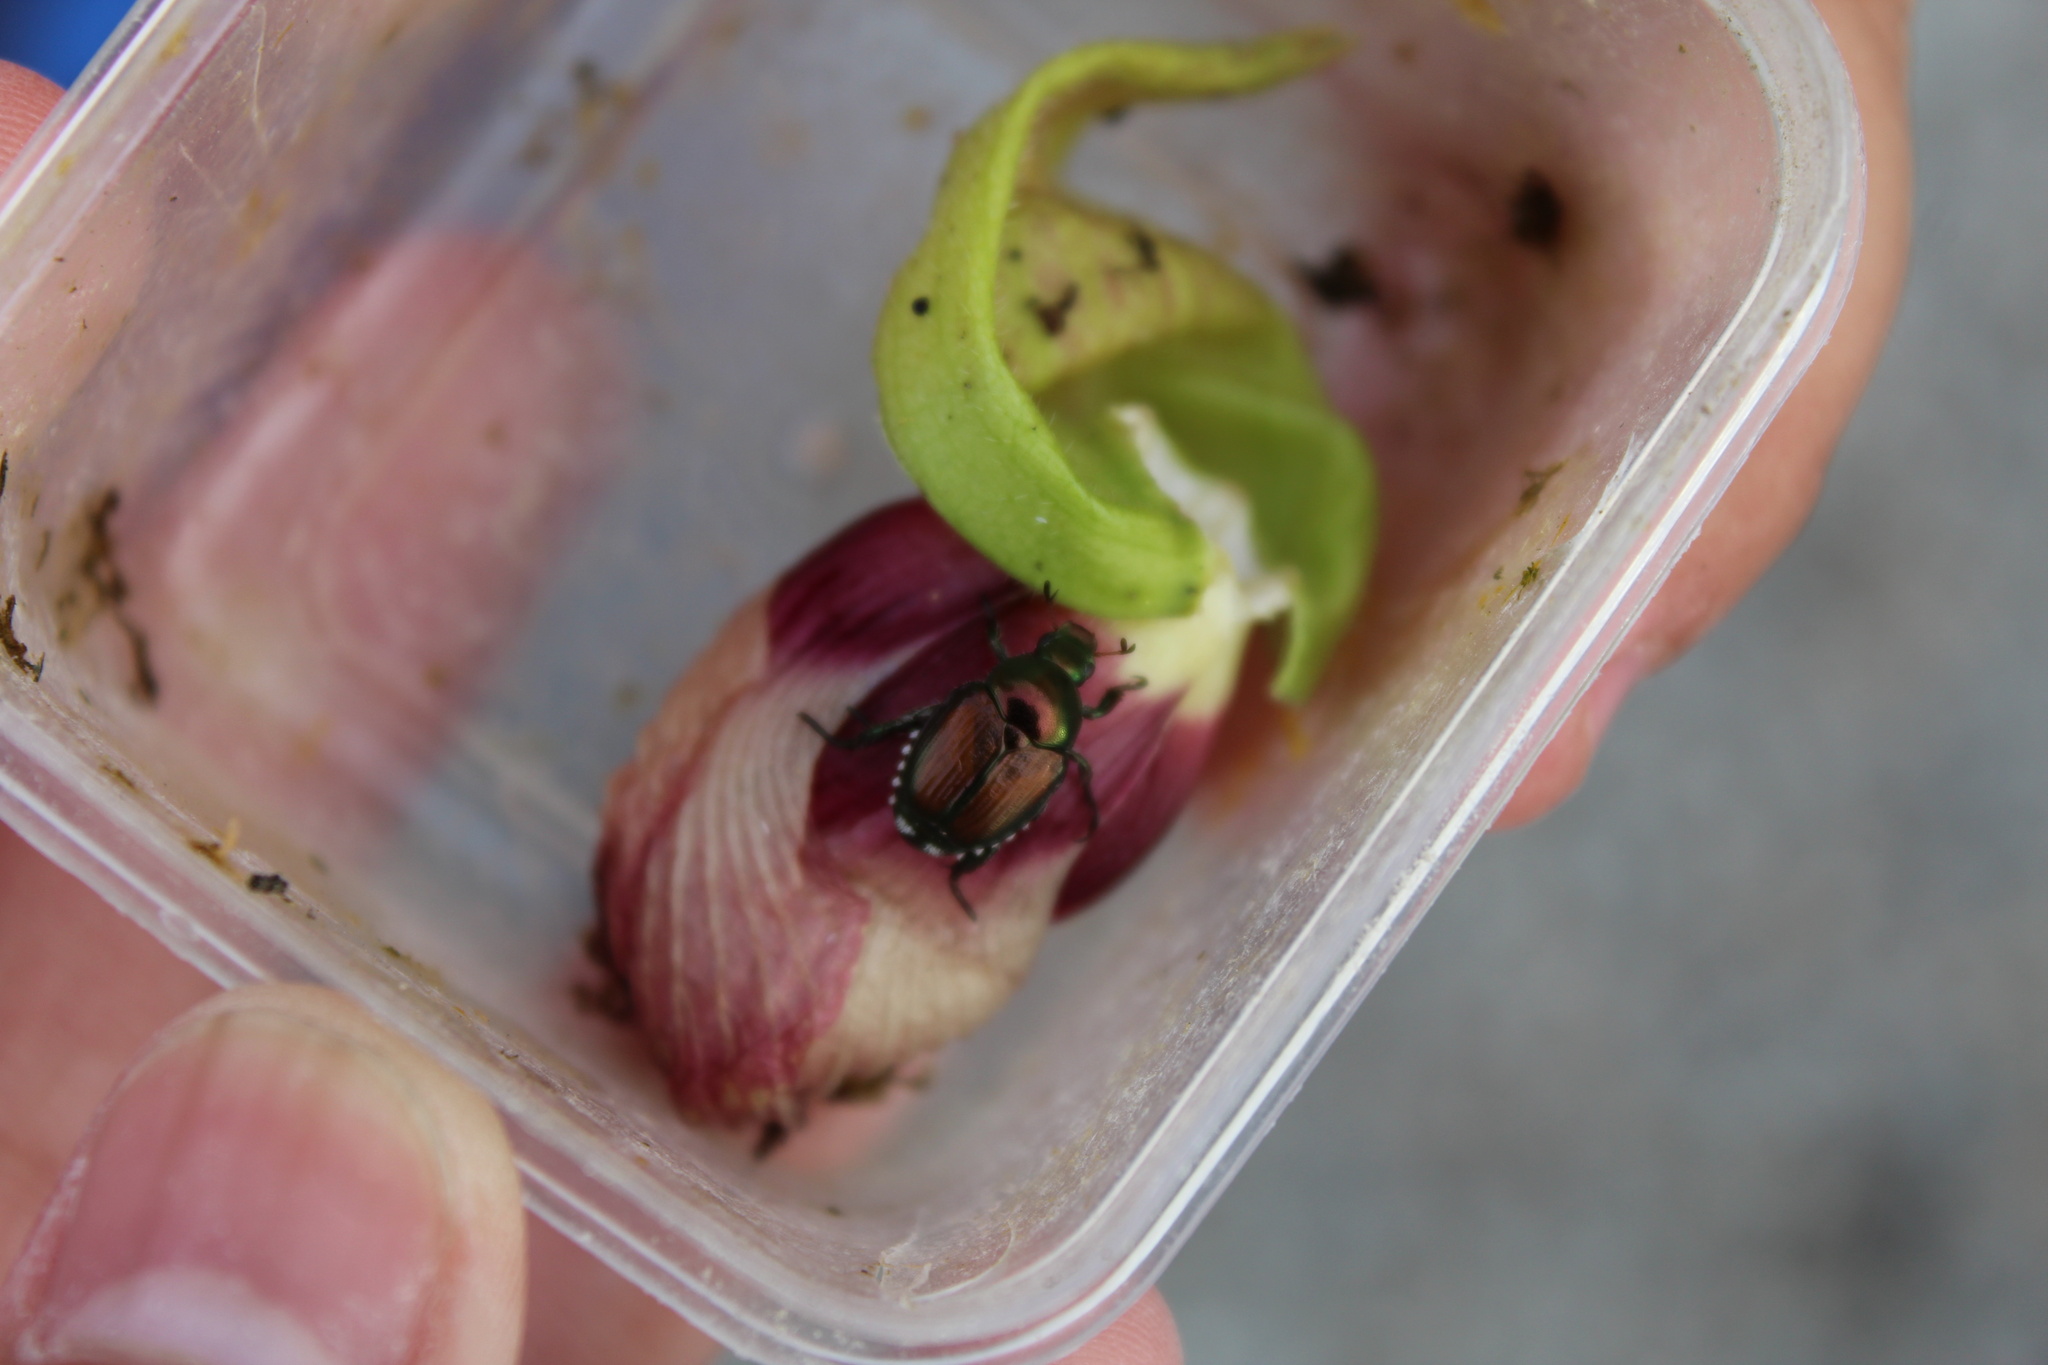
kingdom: Animalia
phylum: Arthropoda
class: Insecta
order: Coleoptera
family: Scarabaeidae
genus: Popillia
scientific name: Popillia japonica
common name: Japanese beetle
